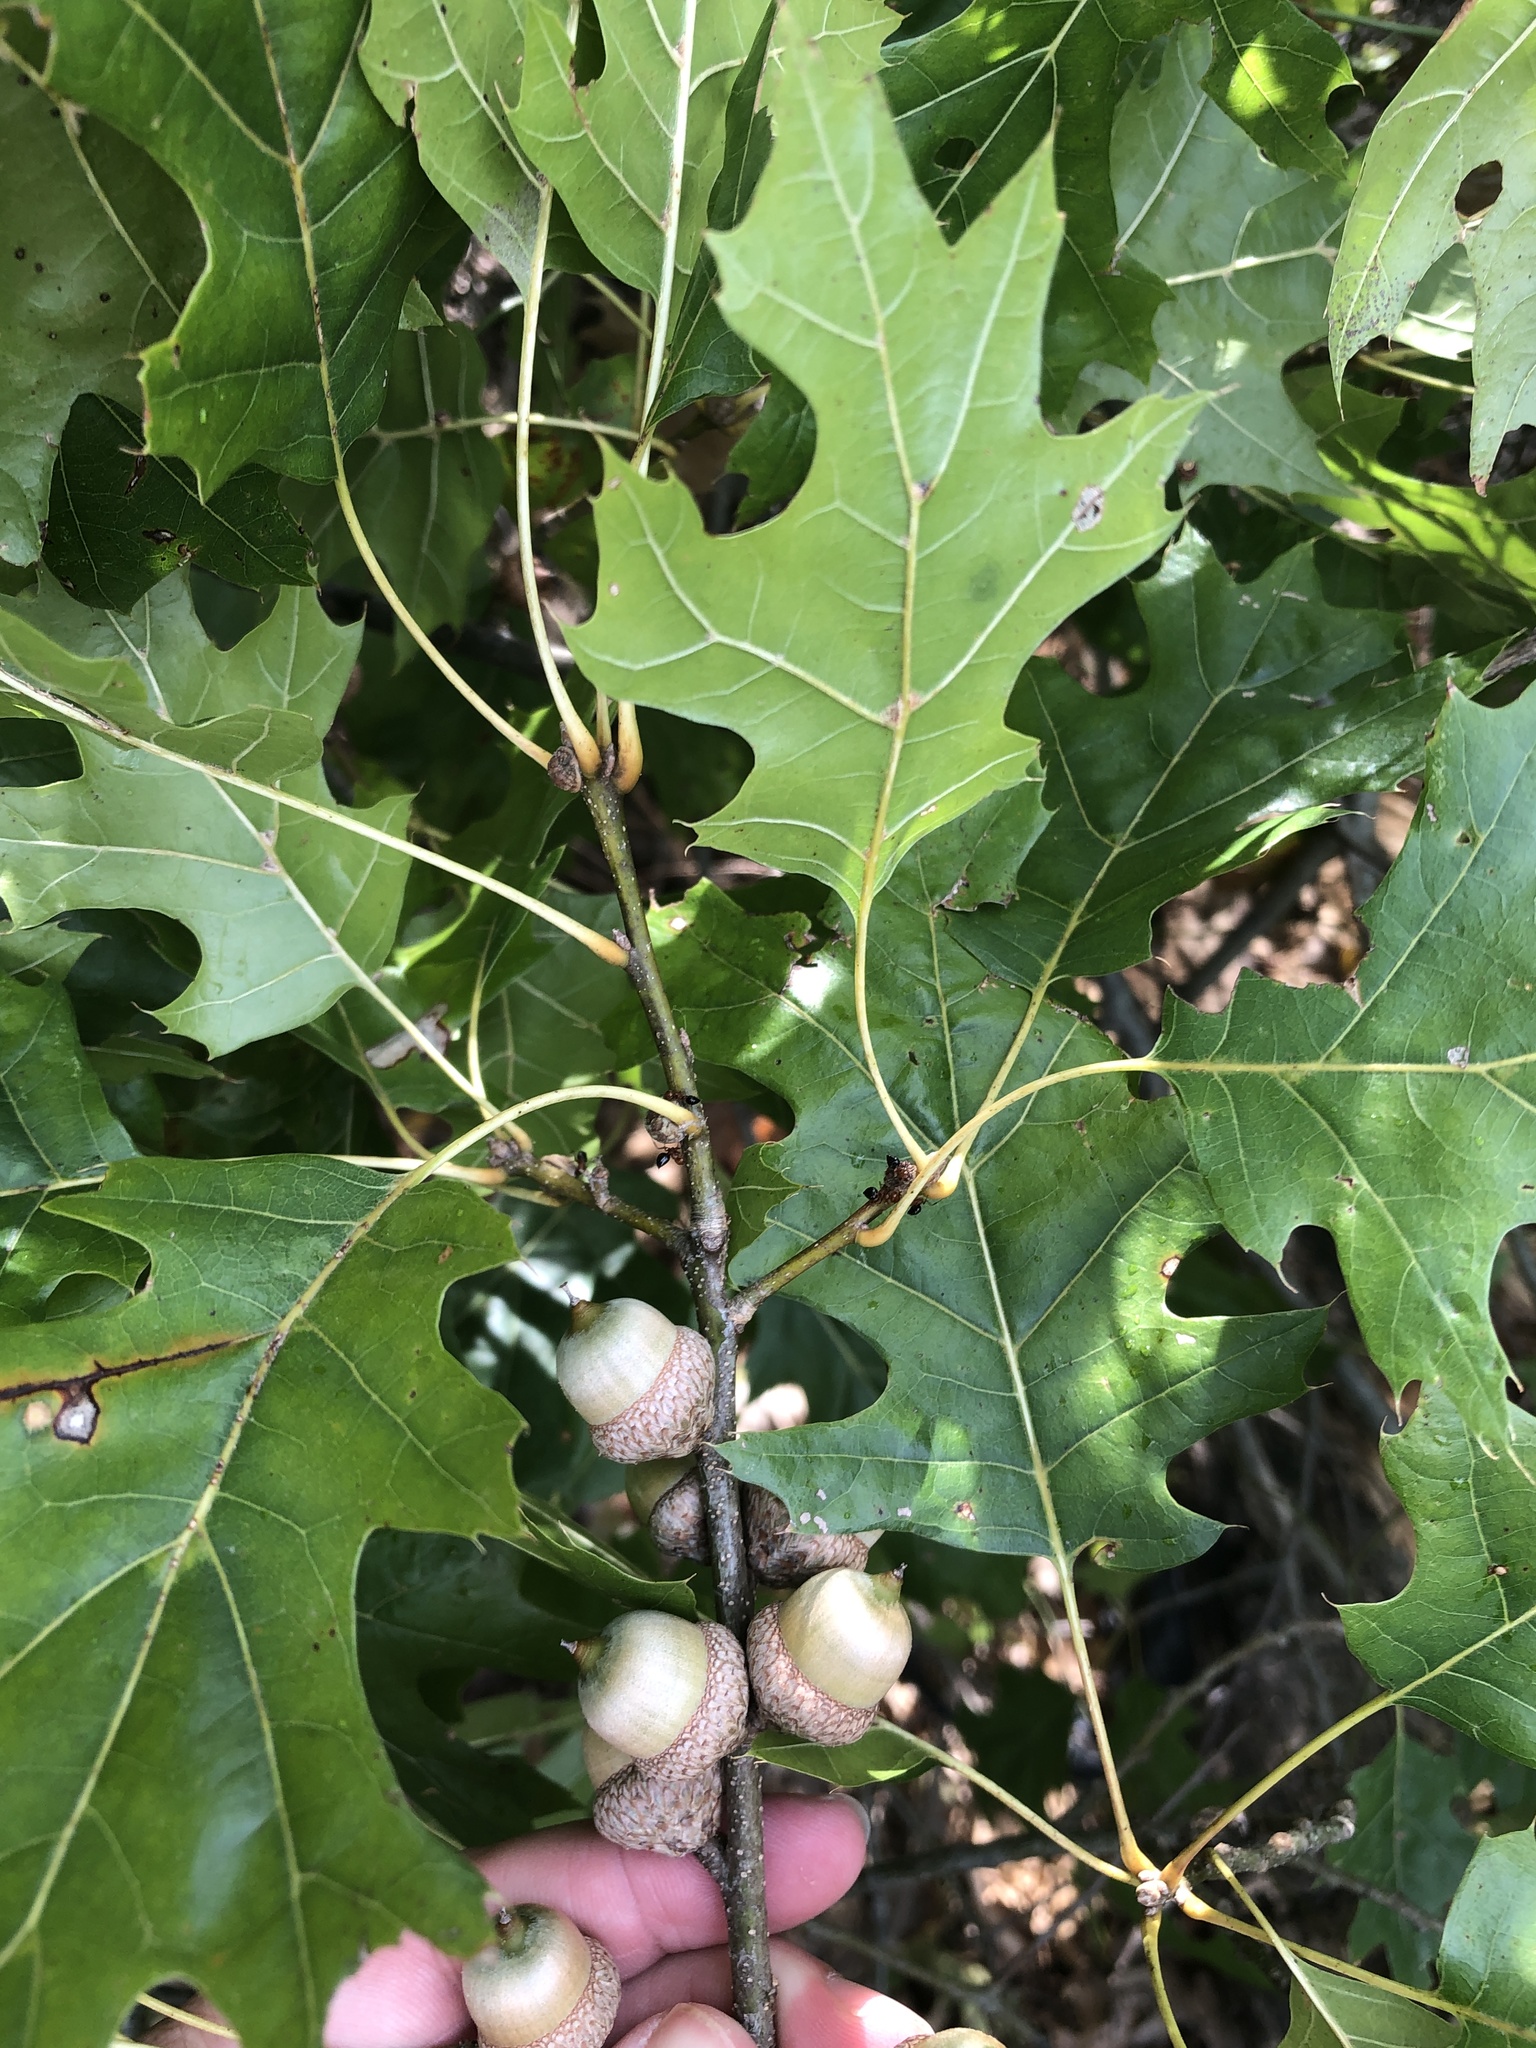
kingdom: Plantae
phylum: Tracheophyta
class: Magnoliopsida
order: Fagales
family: Fagaceae
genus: Quercus
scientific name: Quercus shumardii
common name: Shumard oak
